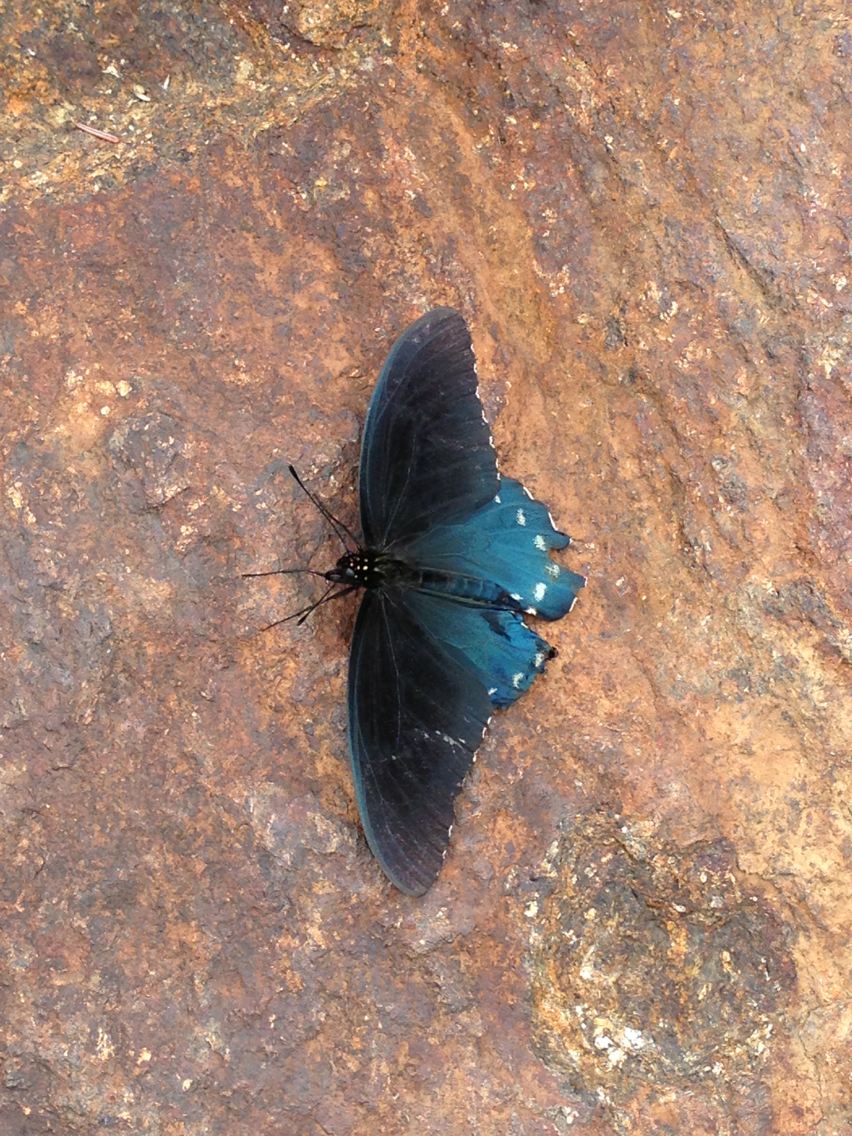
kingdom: Animalia
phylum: Arthropoda
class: Insecta
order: Lepidoptera
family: Papilionidae
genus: Battus
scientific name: Battus philenor
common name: Pipevine swallowtail
